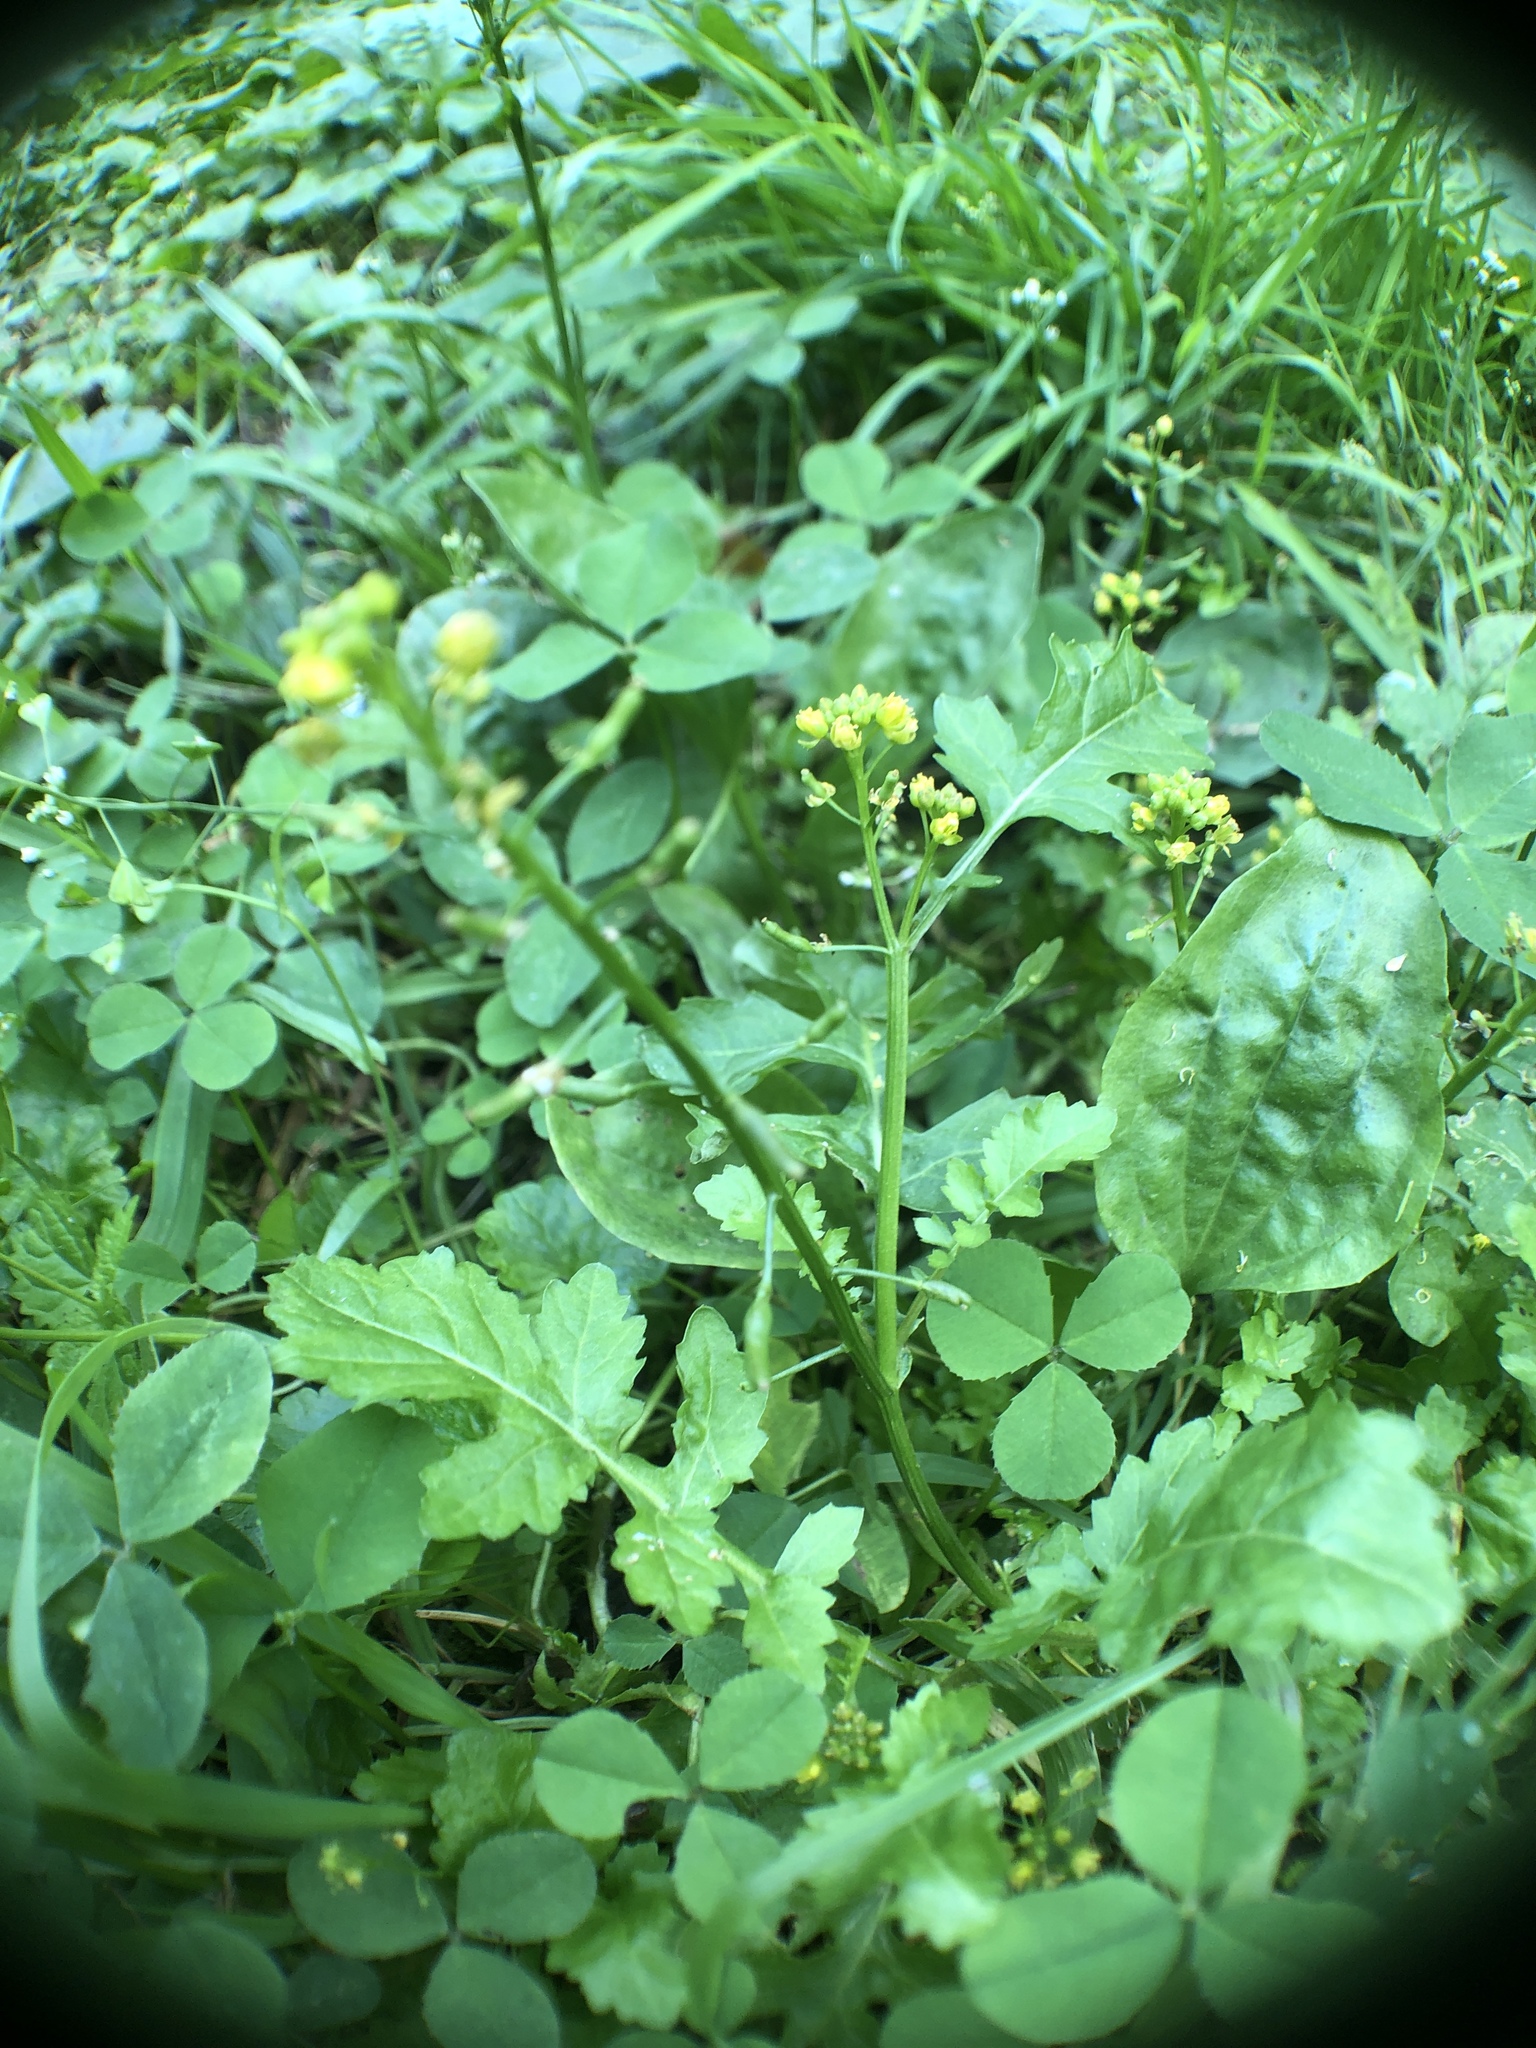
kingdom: Plantae
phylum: Tracheophyta
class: Magnoliopsida
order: Brassicales
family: Brassicaceae
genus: Rorippa
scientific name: Rorippa palustris
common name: Marsh yellow-cress
